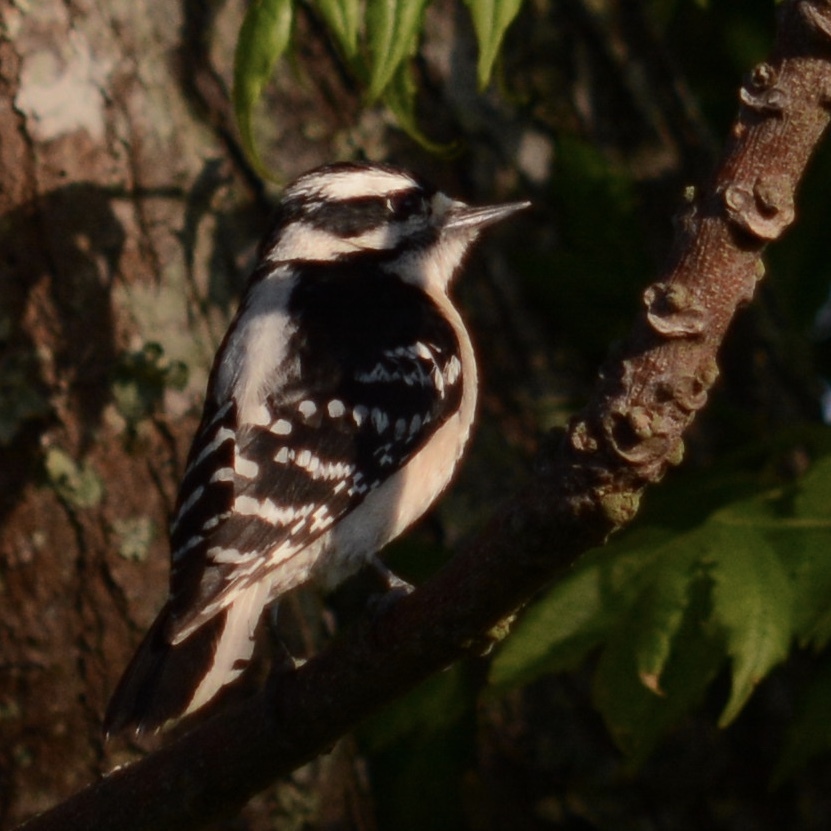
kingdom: Animalia
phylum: Chordata
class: Aves
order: Piciformes
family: Picidae
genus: Dryobates
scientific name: Dryobates pubescens
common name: Downy woodpecker
